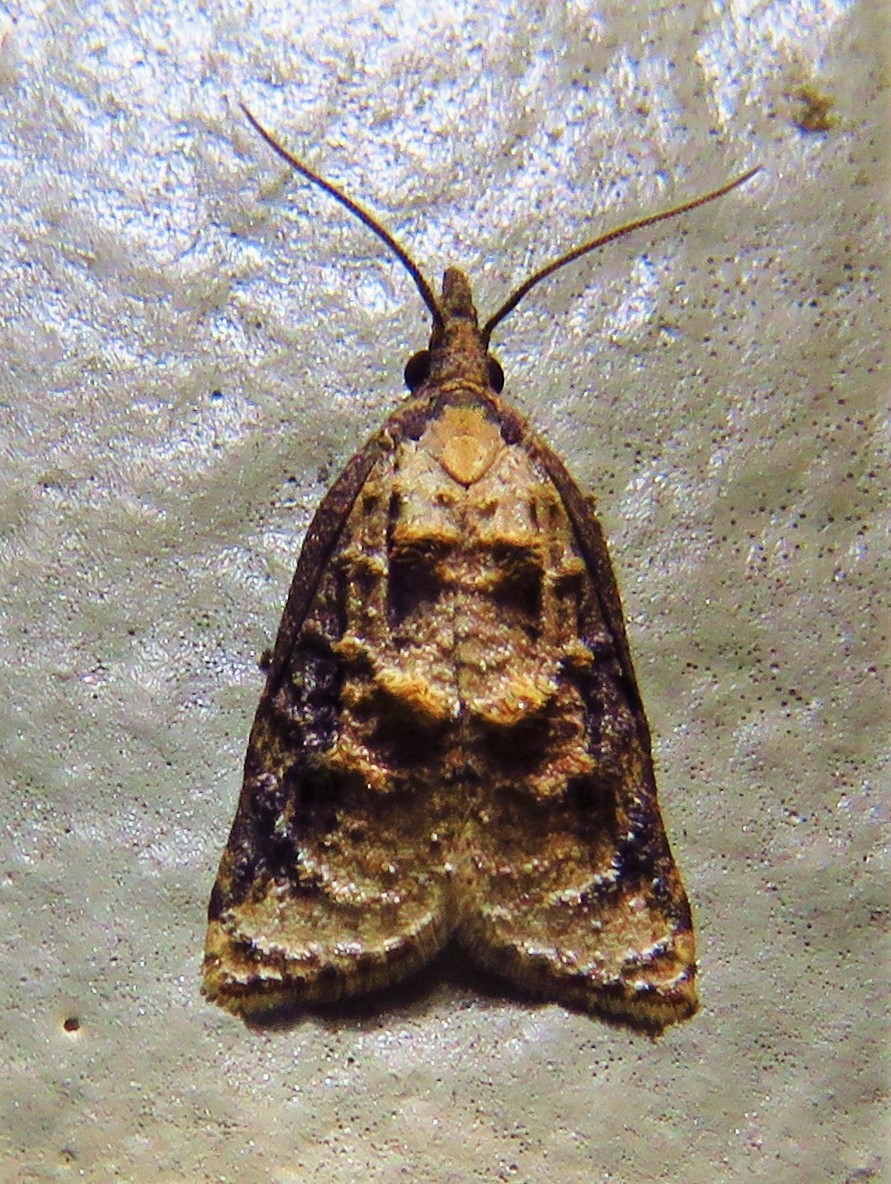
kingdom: Animalia
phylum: Arthropoda
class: Insecta
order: Lepidoptera
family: Tortricidae
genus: Platynota
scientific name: Platynota rostrana
